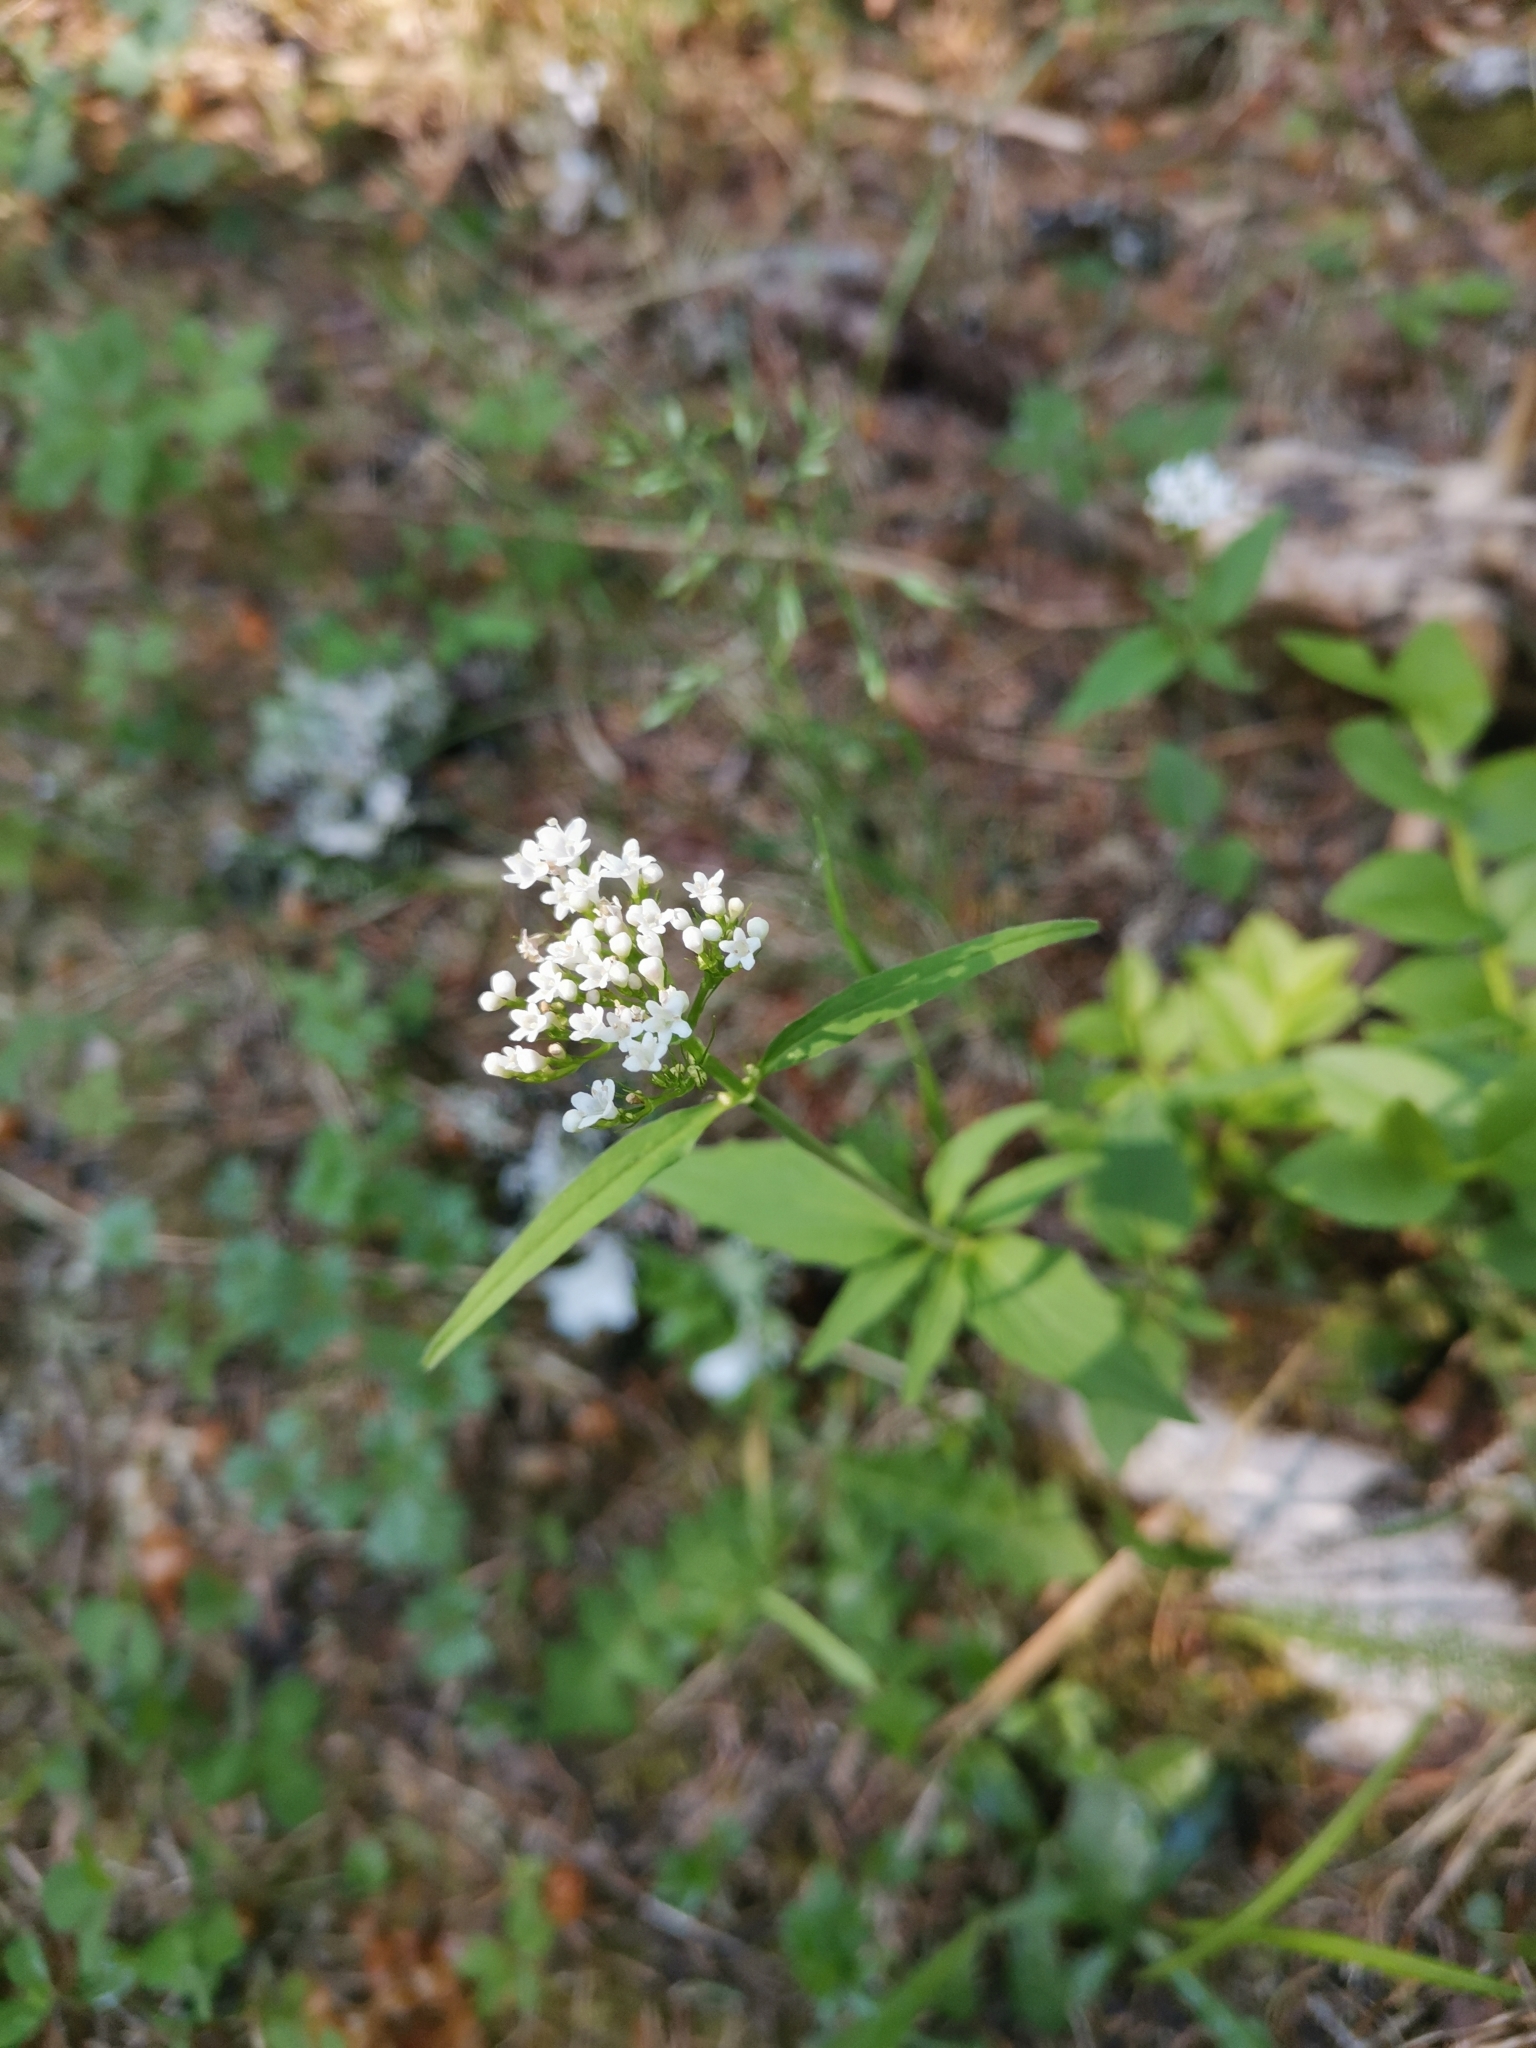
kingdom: Plantae
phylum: Tracheophyta
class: Magnoliopsida
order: Dipsacales
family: Caprifoliaceae
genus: Valeriana
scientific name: Valeriana tripteris
